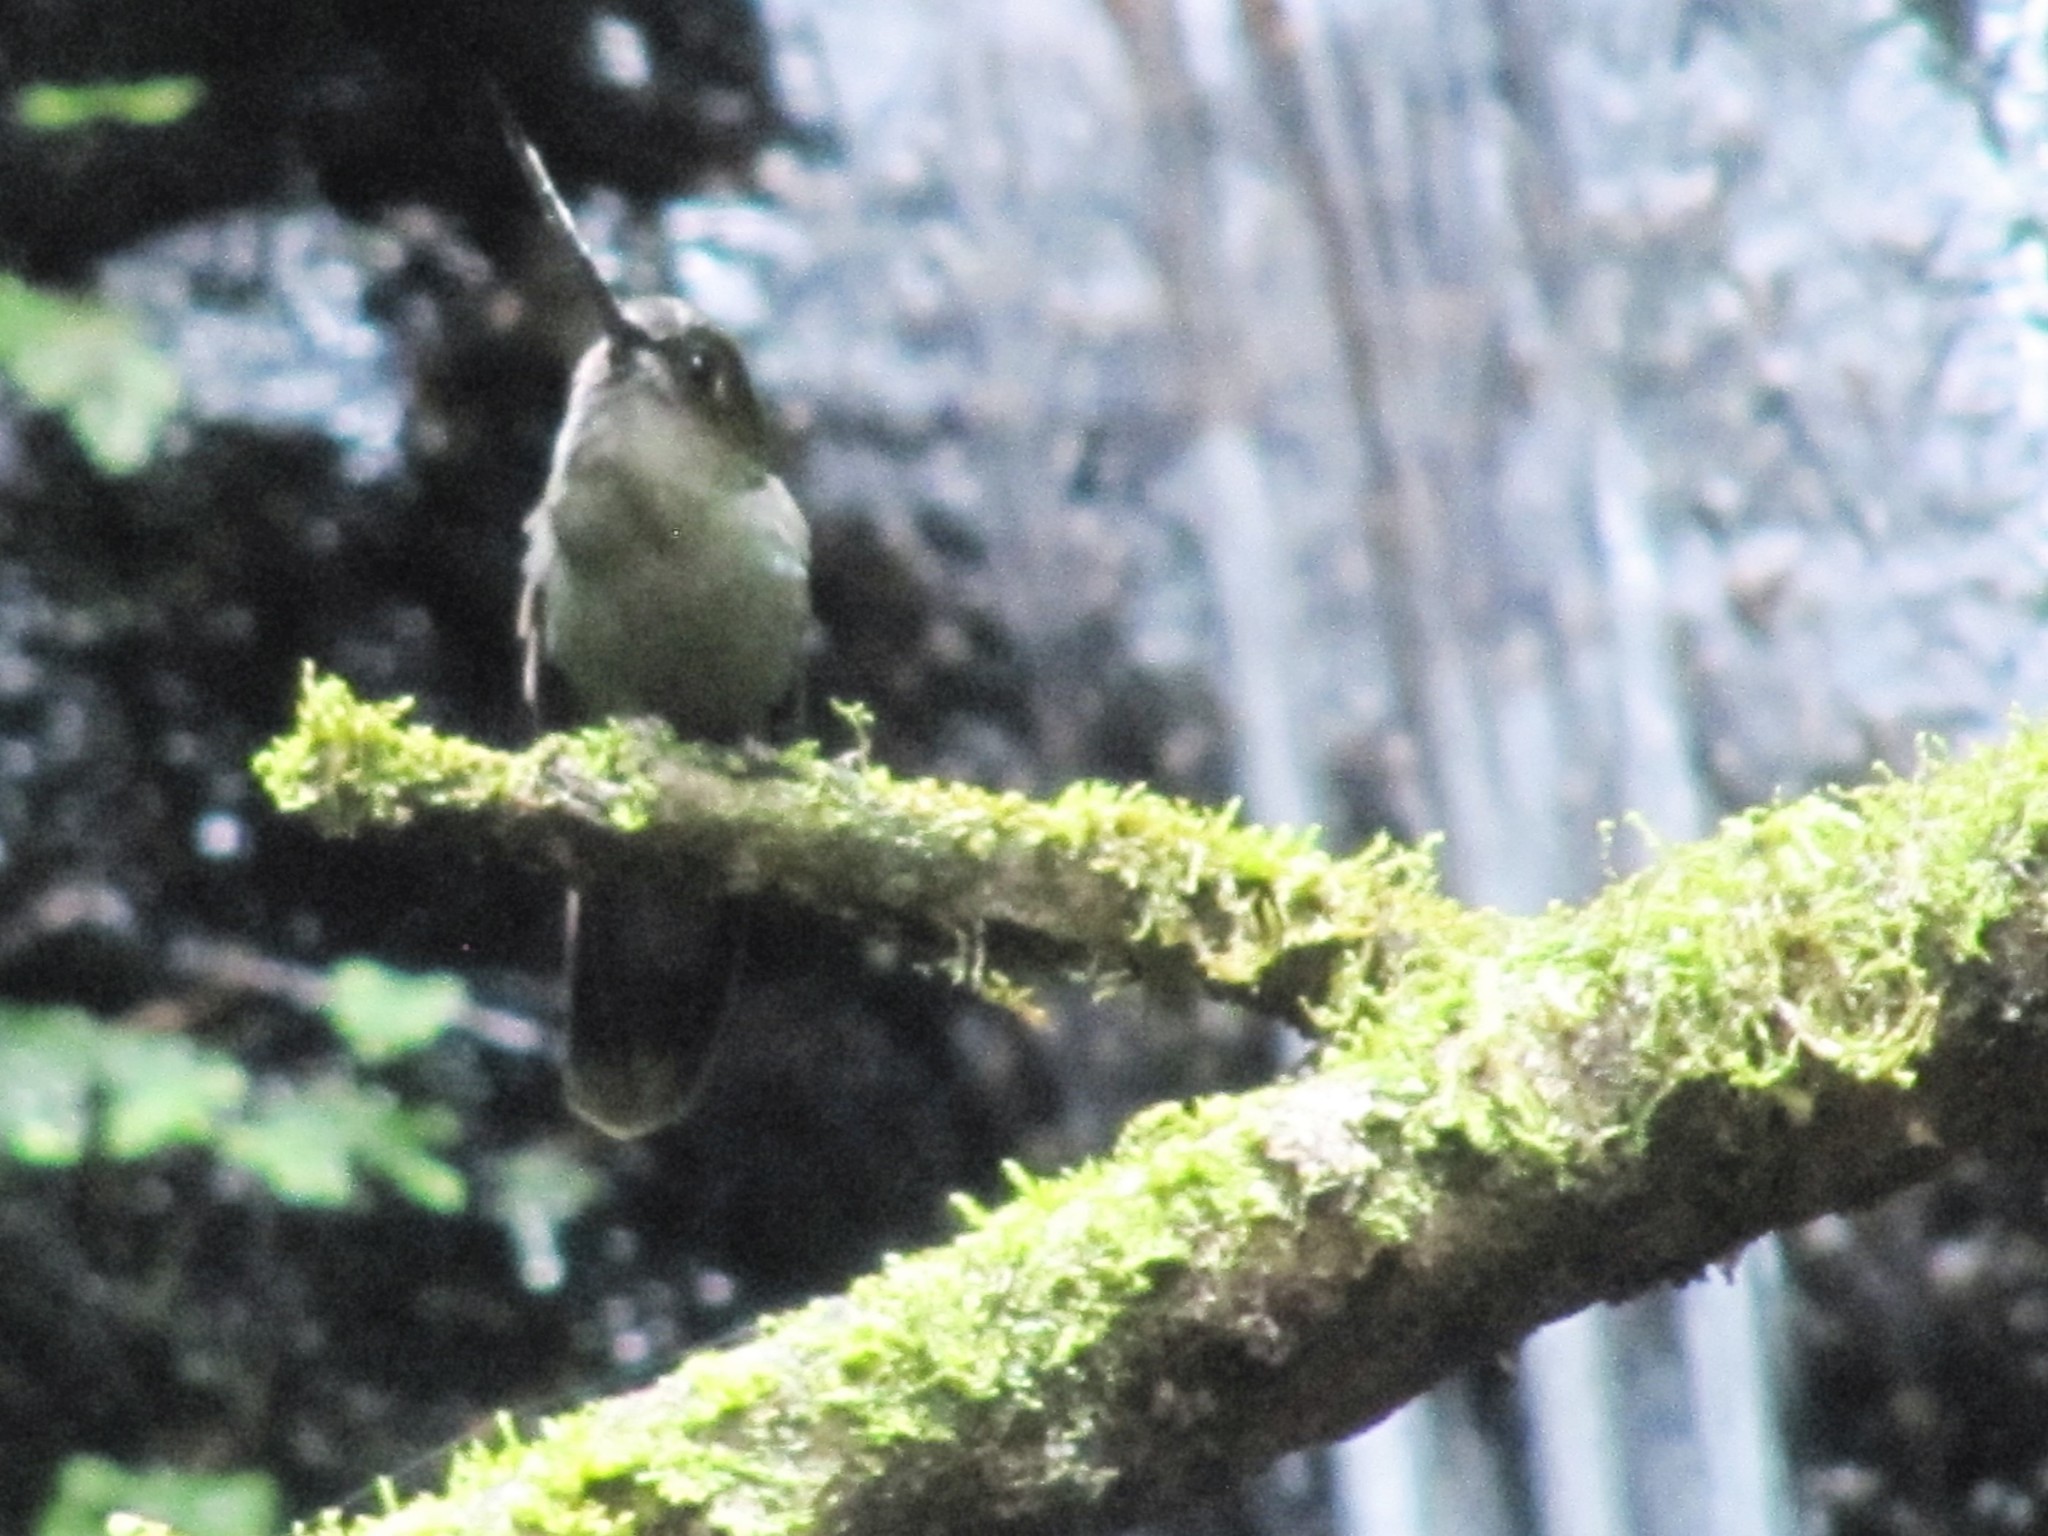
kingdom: Animalia
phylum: Chordata
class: Aves
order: Apodiformes
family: Trochilidae
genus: Doryfera
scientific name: Doryfera ludovicae
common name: Green-fronted lancebill
